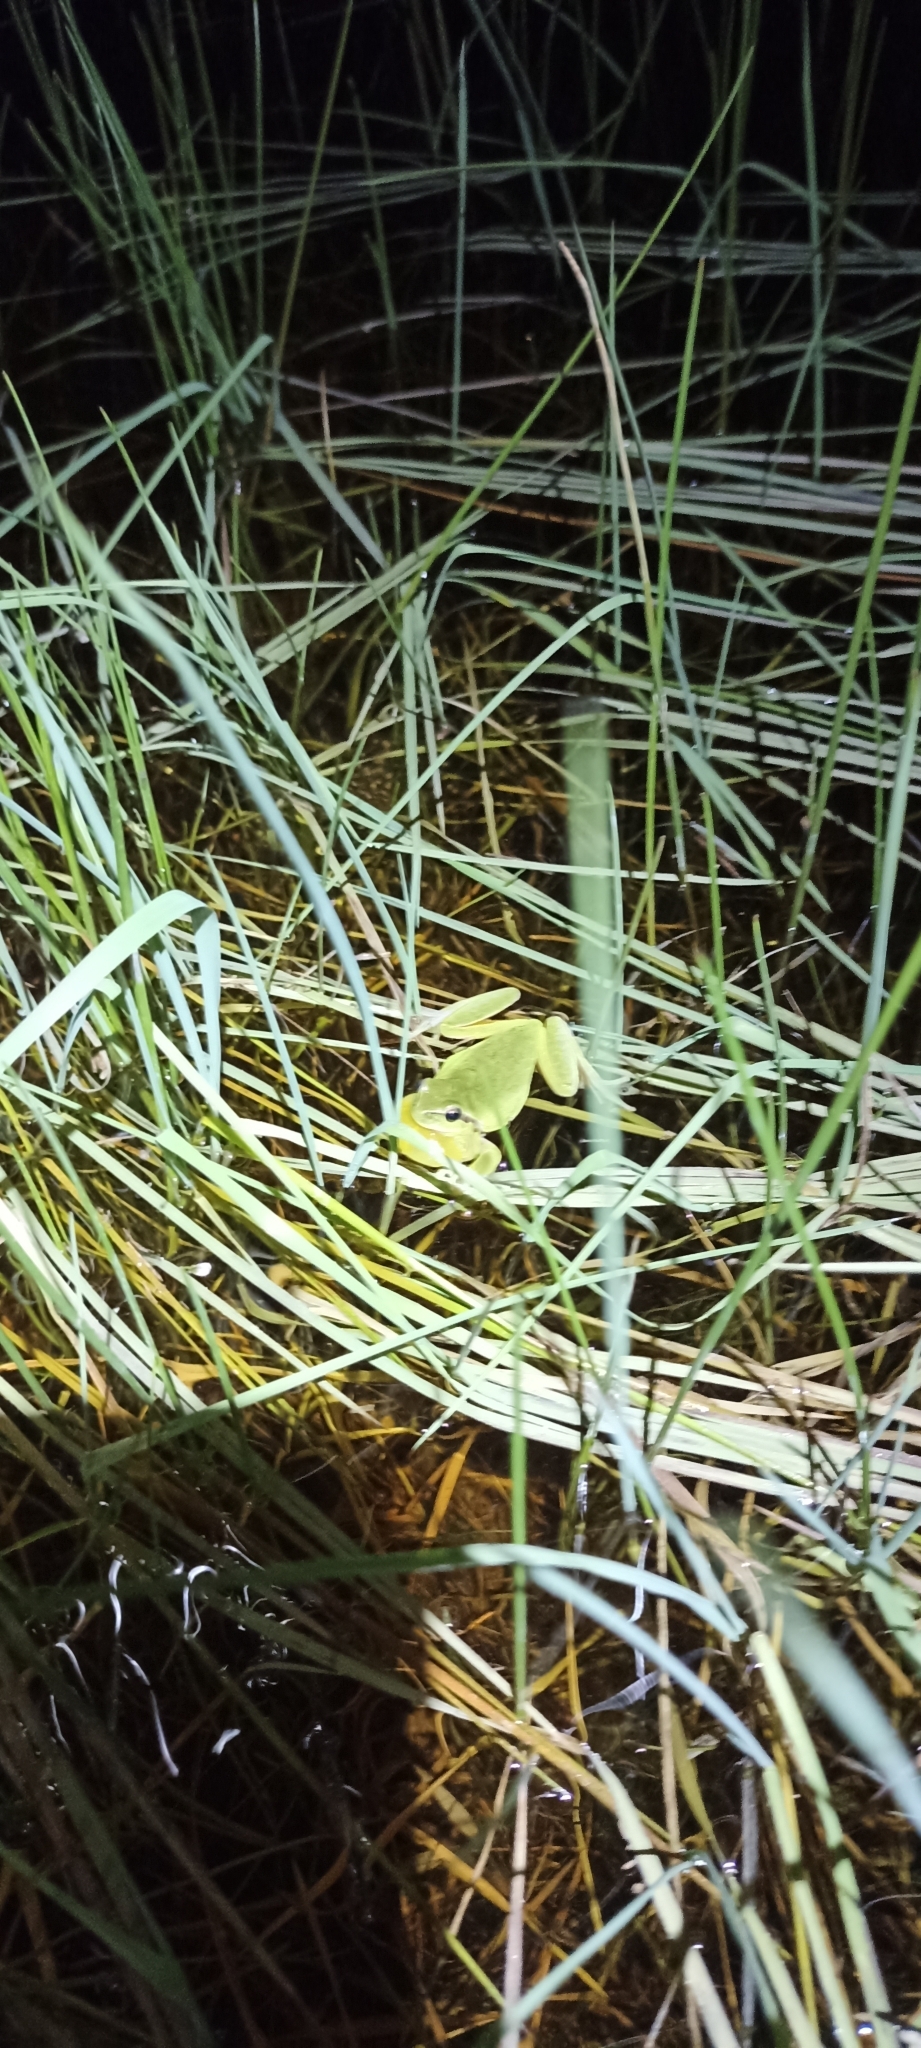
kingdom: Animalia
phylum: Chordata
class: Amphibia
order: Anura
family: Hylidae
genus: Hyla
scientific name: Hyla meridionalis
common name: Stripeless tree frog
